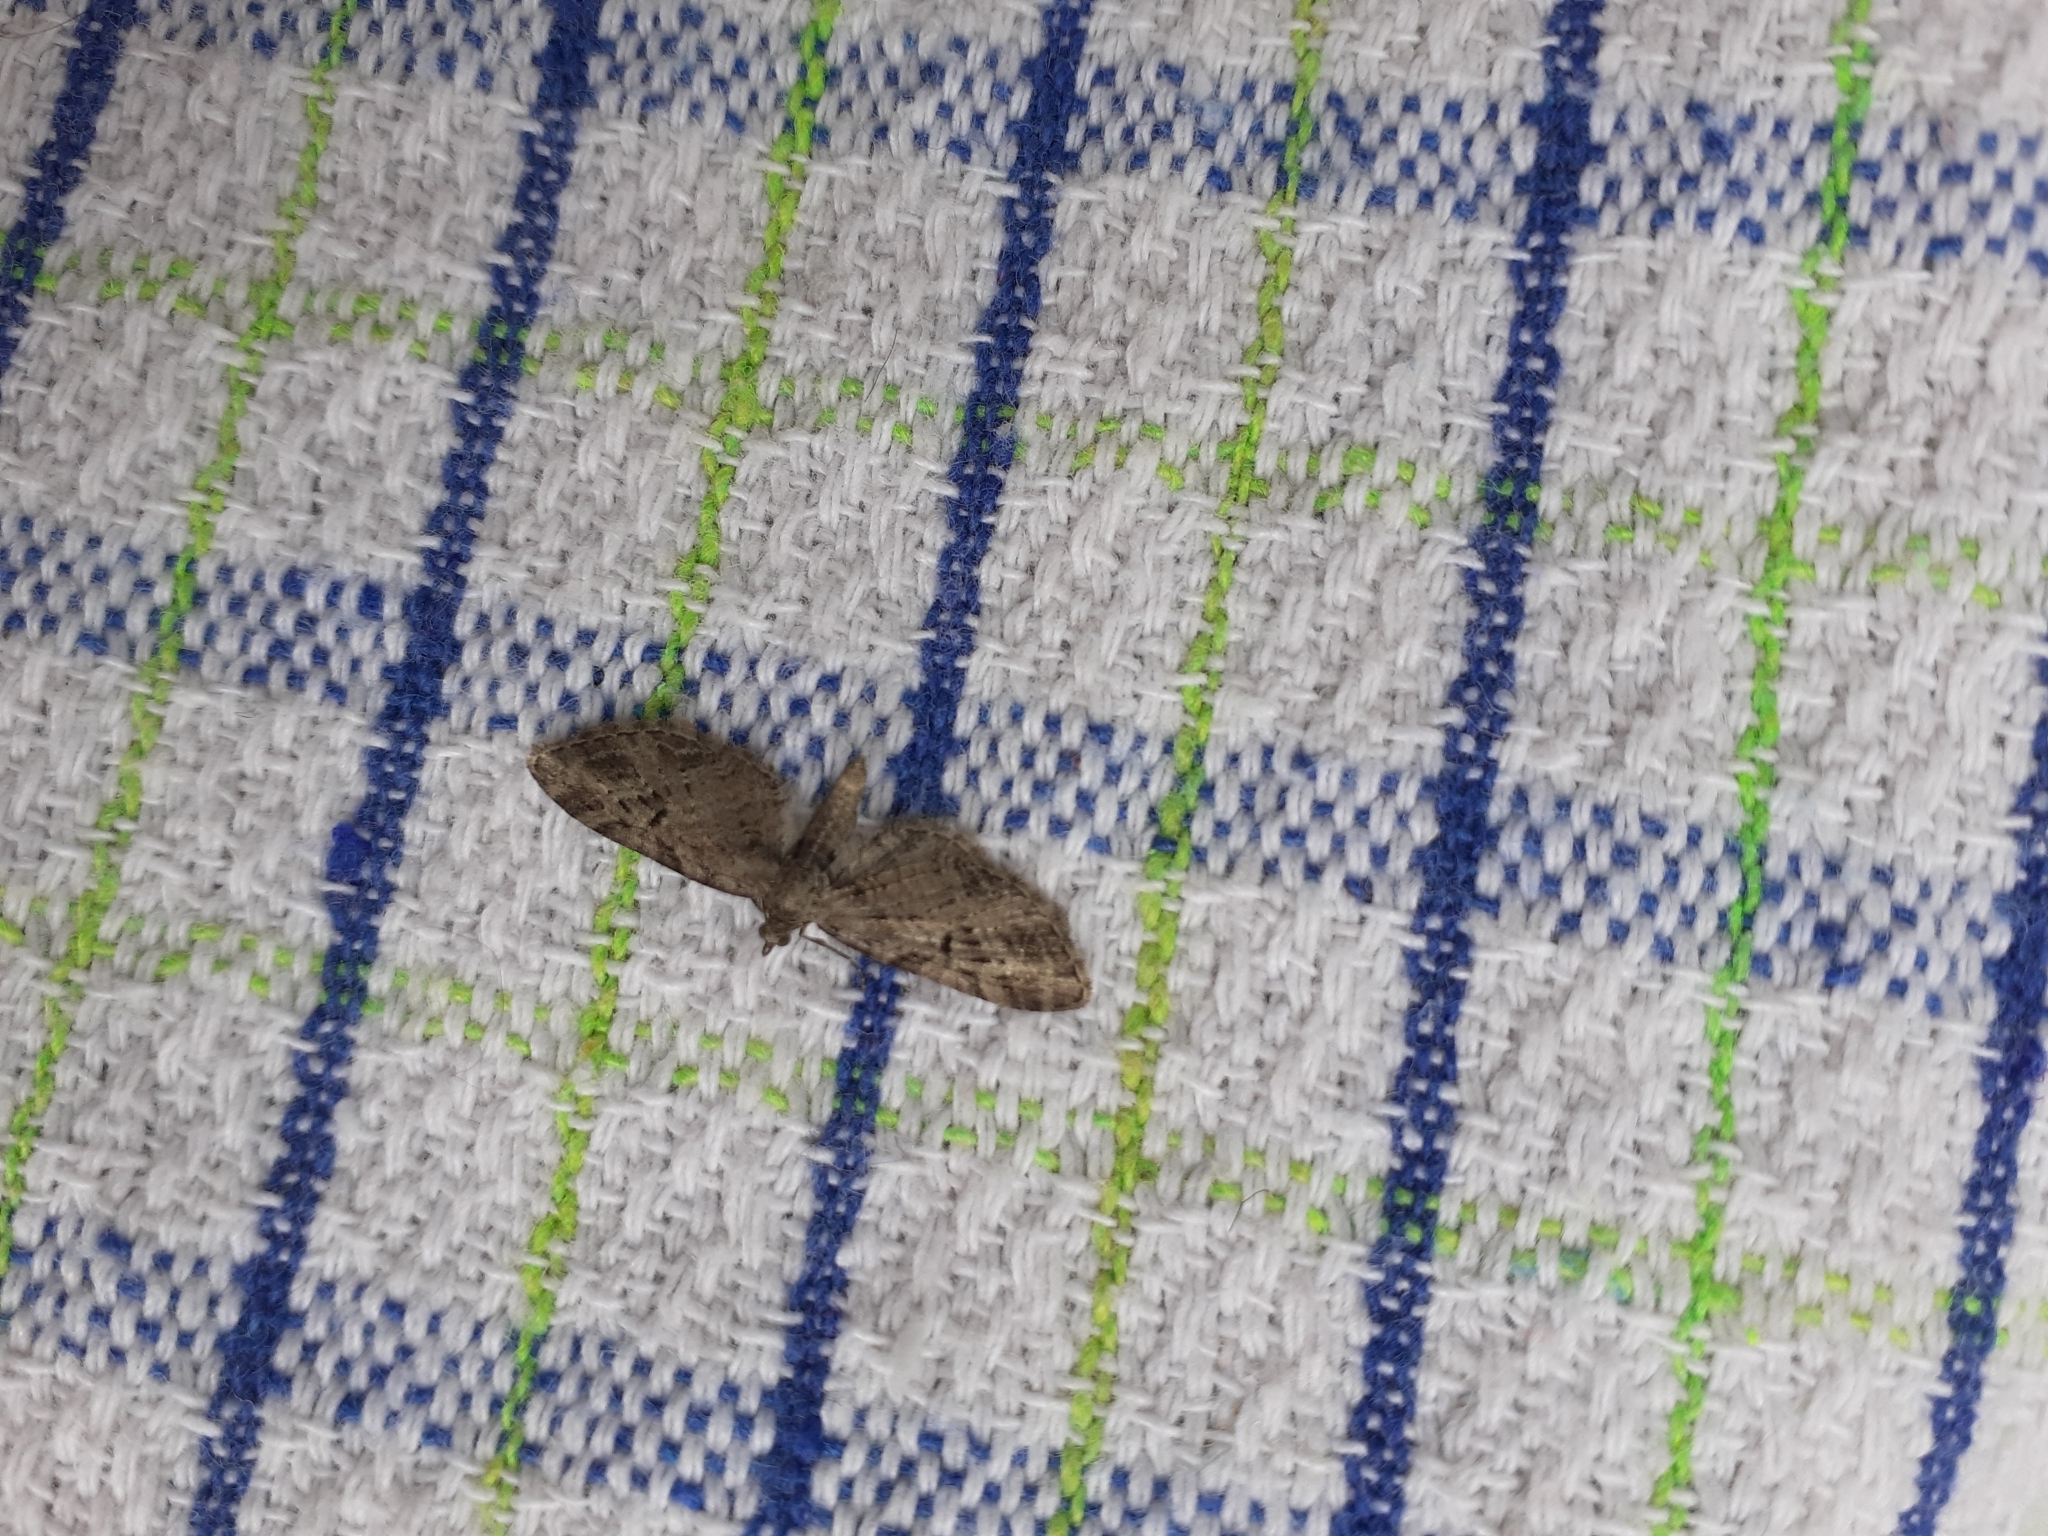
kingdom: Animalia
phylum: Arthropoda
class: Insecta
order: Lepidoptera
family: Geometridae
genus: Eupithecia
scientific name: Eupithecia exiguata
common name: Mottled pug
